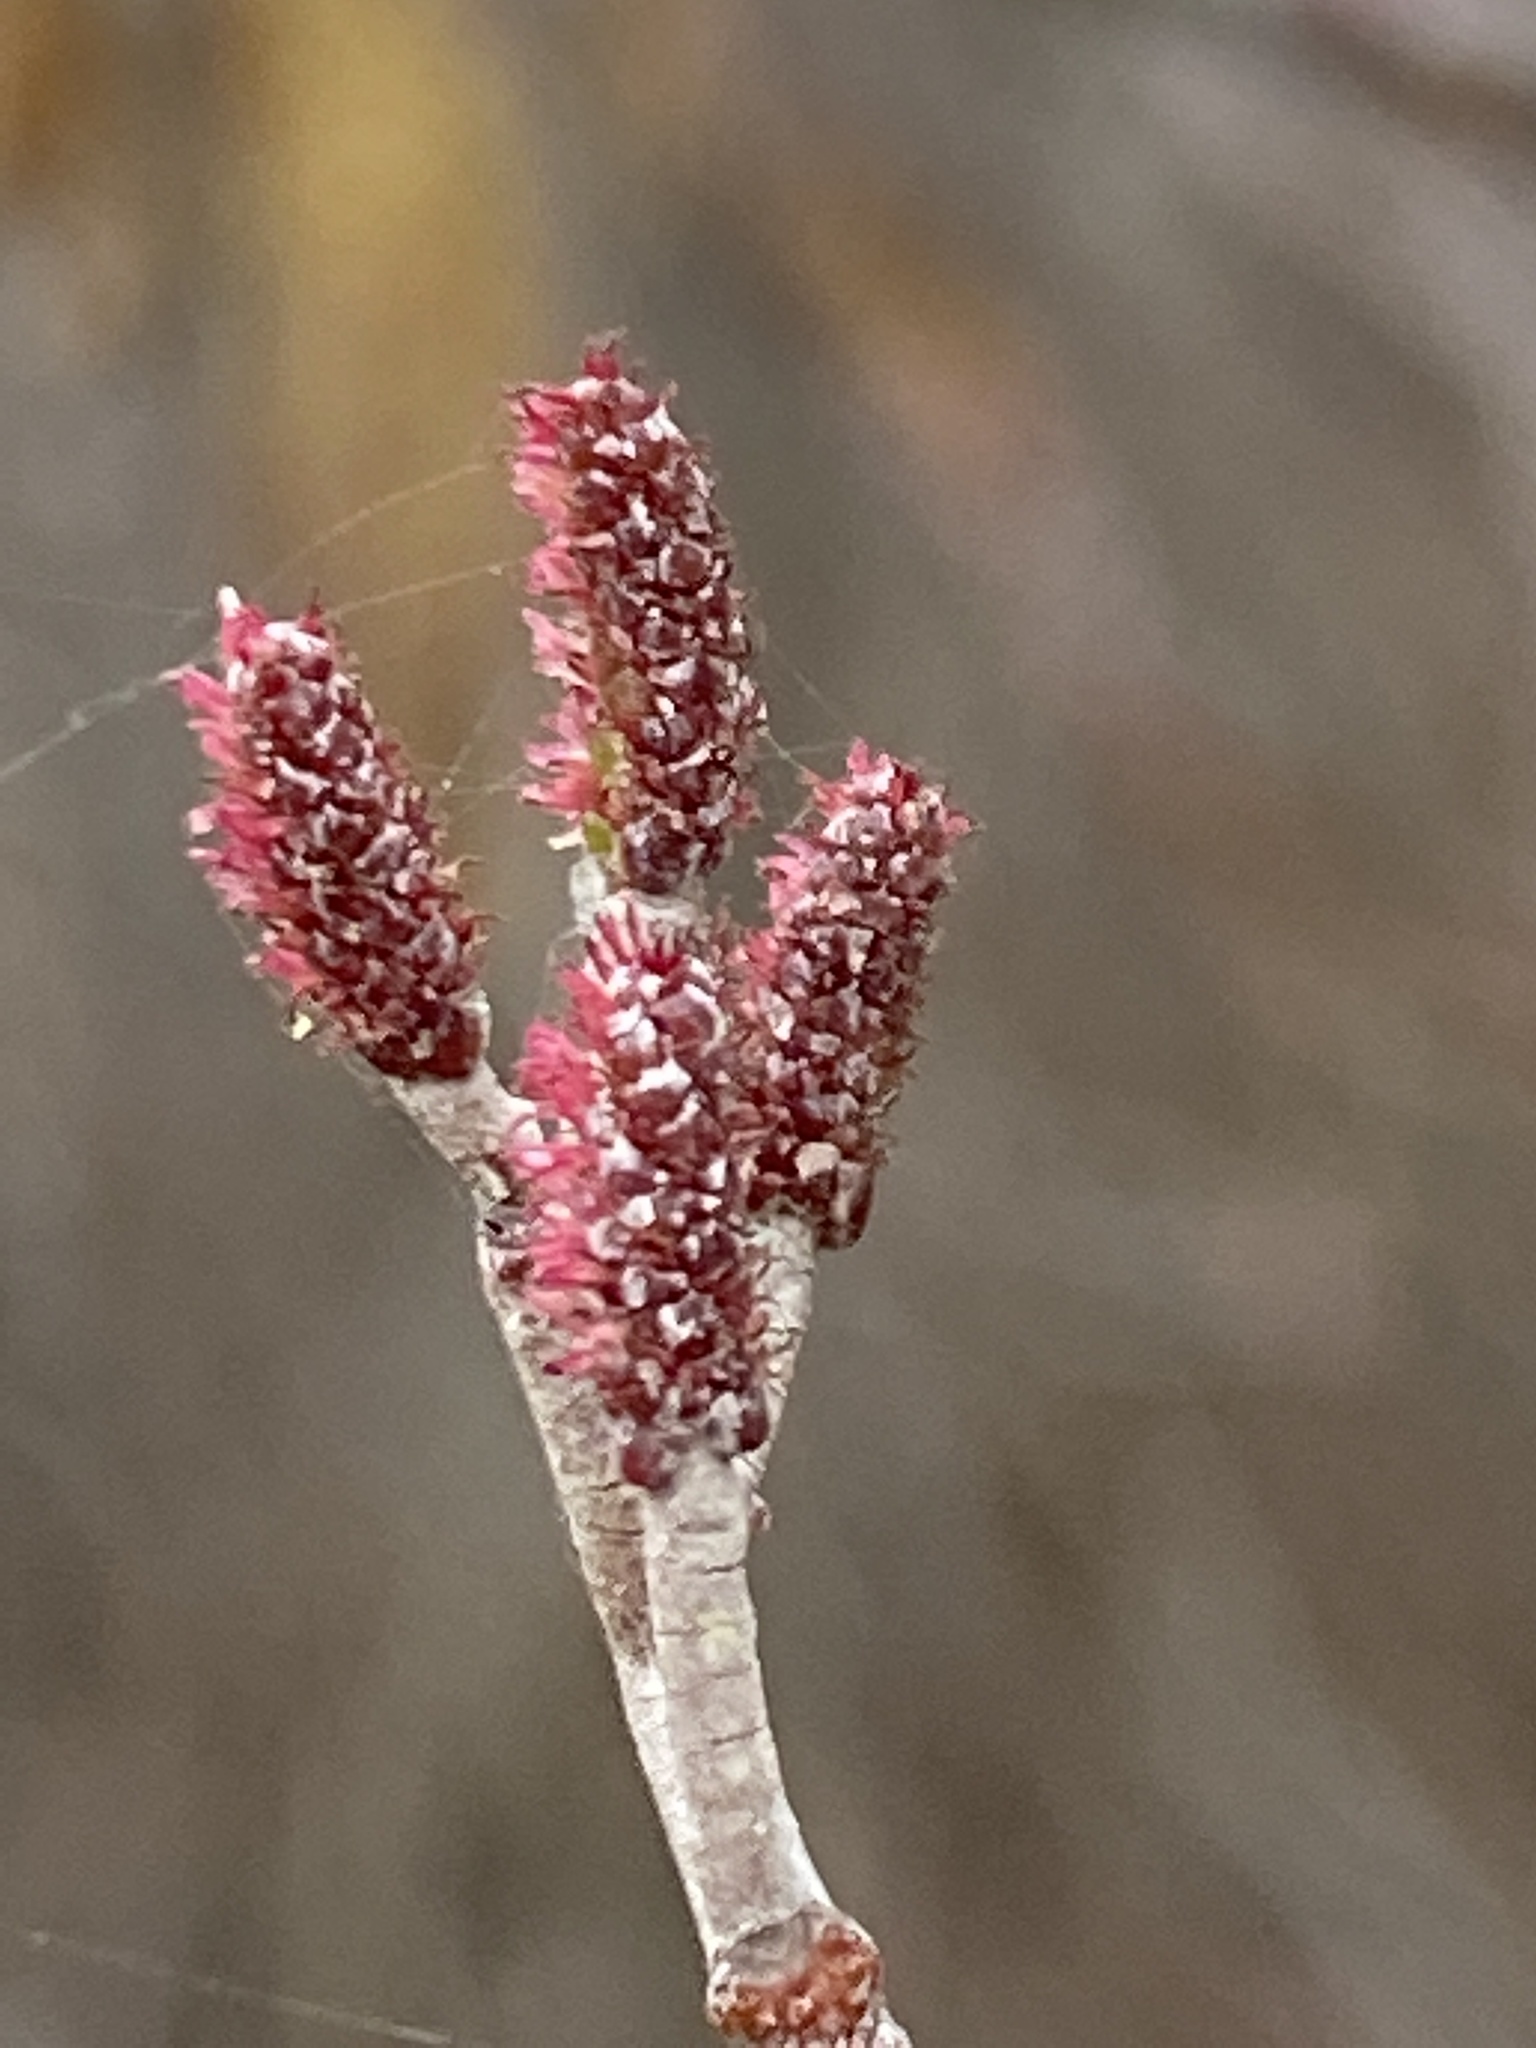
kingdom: Plantae
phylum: Tracheophyta
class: Magnoliopsida
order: Fagales
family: Betulaceae
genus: Alnus
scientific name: Alnus serrulata
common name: Hazel alder
